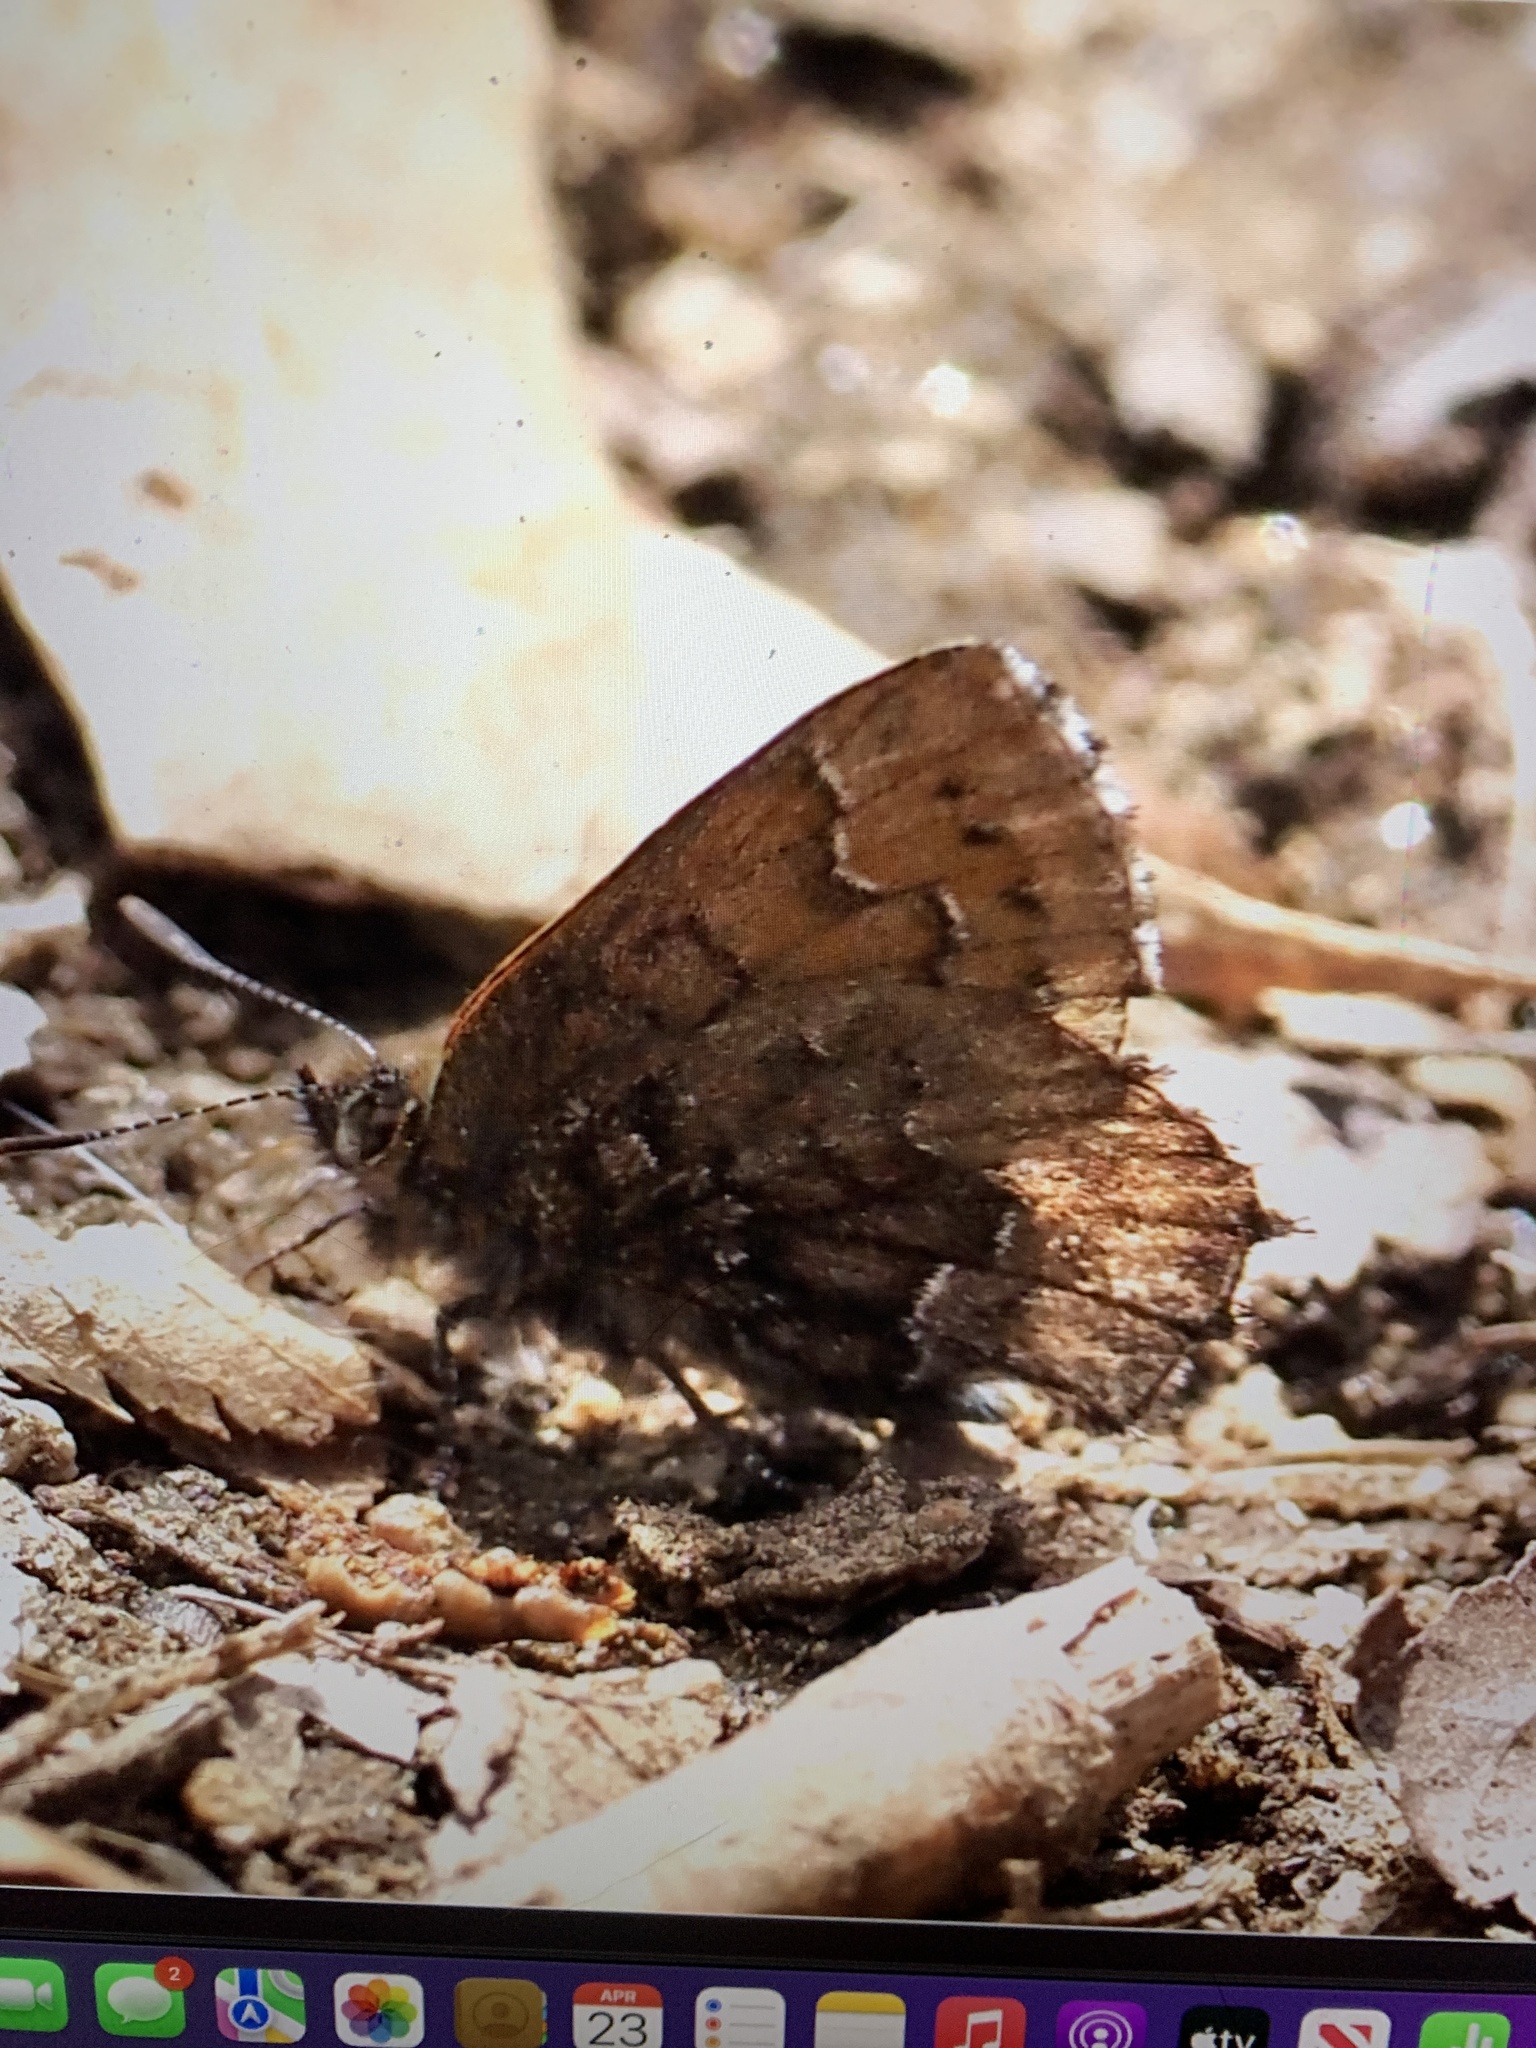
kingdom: Animalia
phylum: Arthropoda
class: Insecta
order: Lepidoptera
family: Lycaenidae
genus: Incisalia
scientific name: Incisalia niphon
